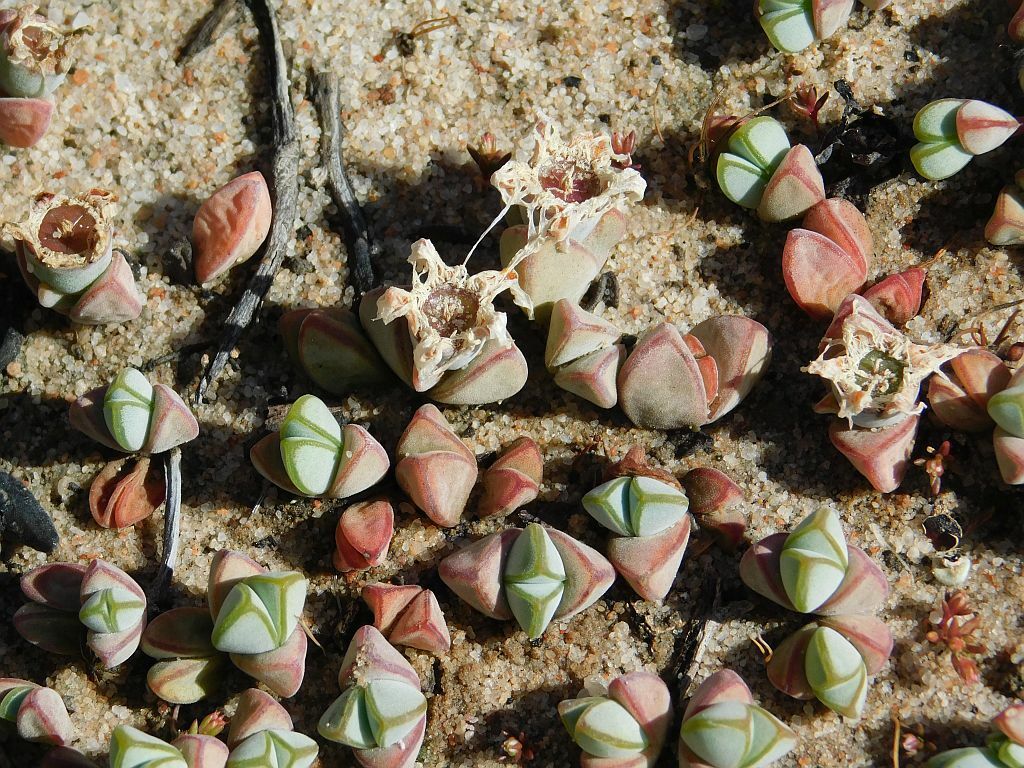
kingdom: Plantae
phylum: Tracheophyta
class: Magnoliopsida
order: Caryophyllales
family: Aizoaceae
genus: Braunsia
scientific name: Braunsia maximiliani
